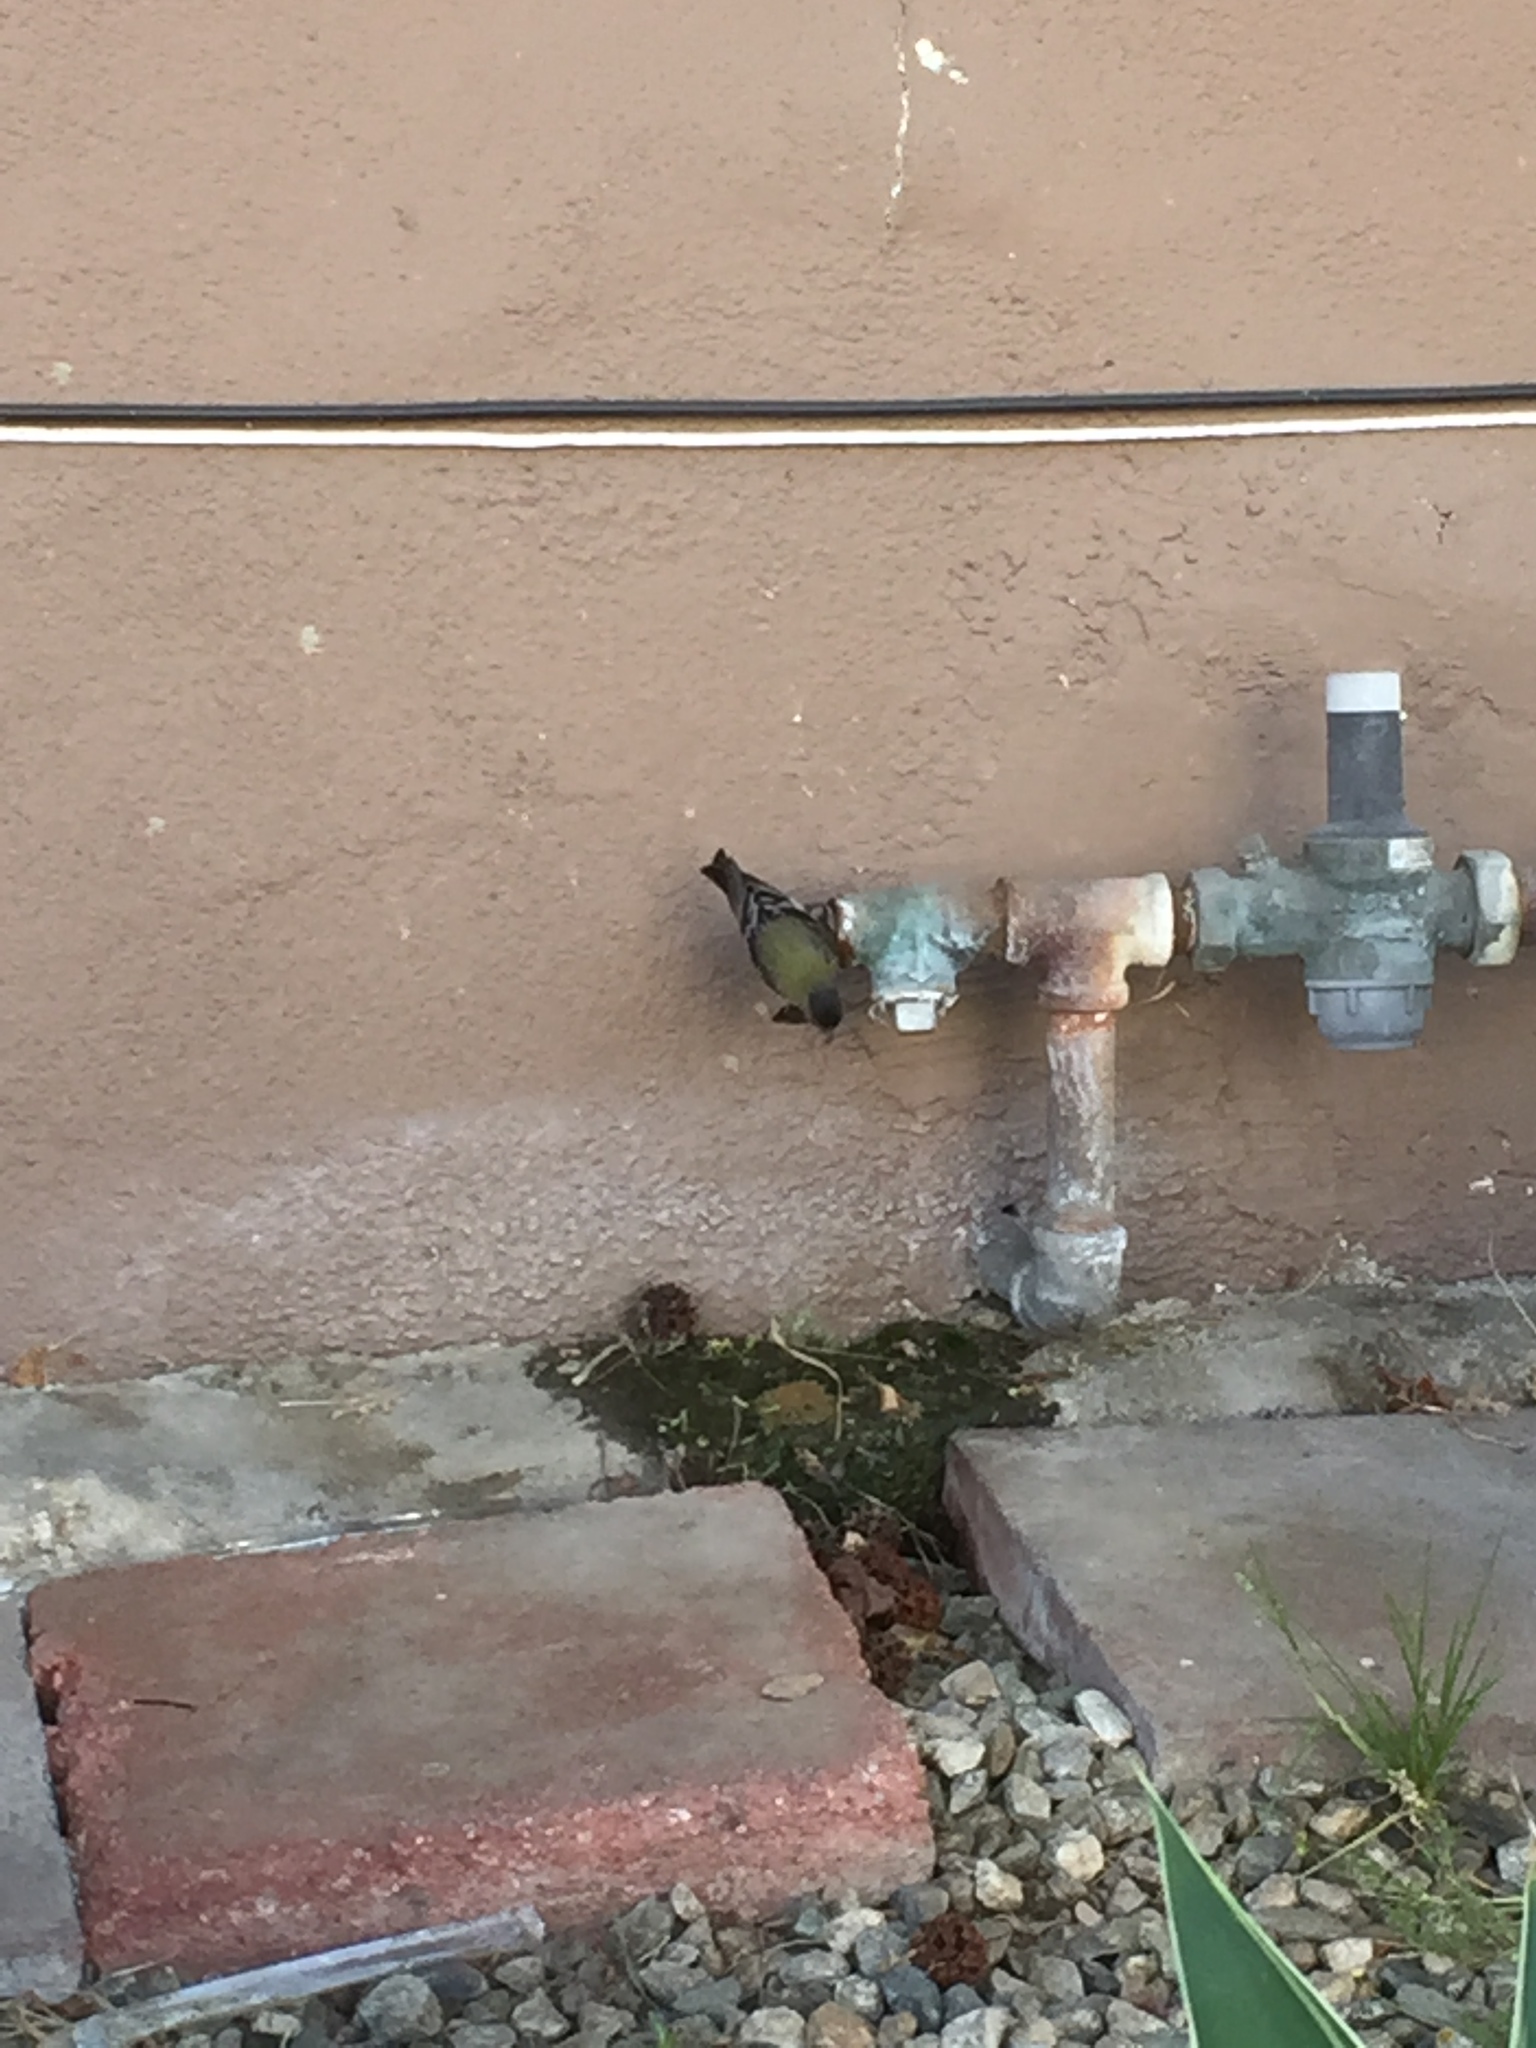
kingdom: Animalia
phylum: Chordata
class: Aves
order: Passeriformes
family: Fringillidae
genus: Spinus
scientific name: Spinus psaltria
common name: Lesser goldfinch
